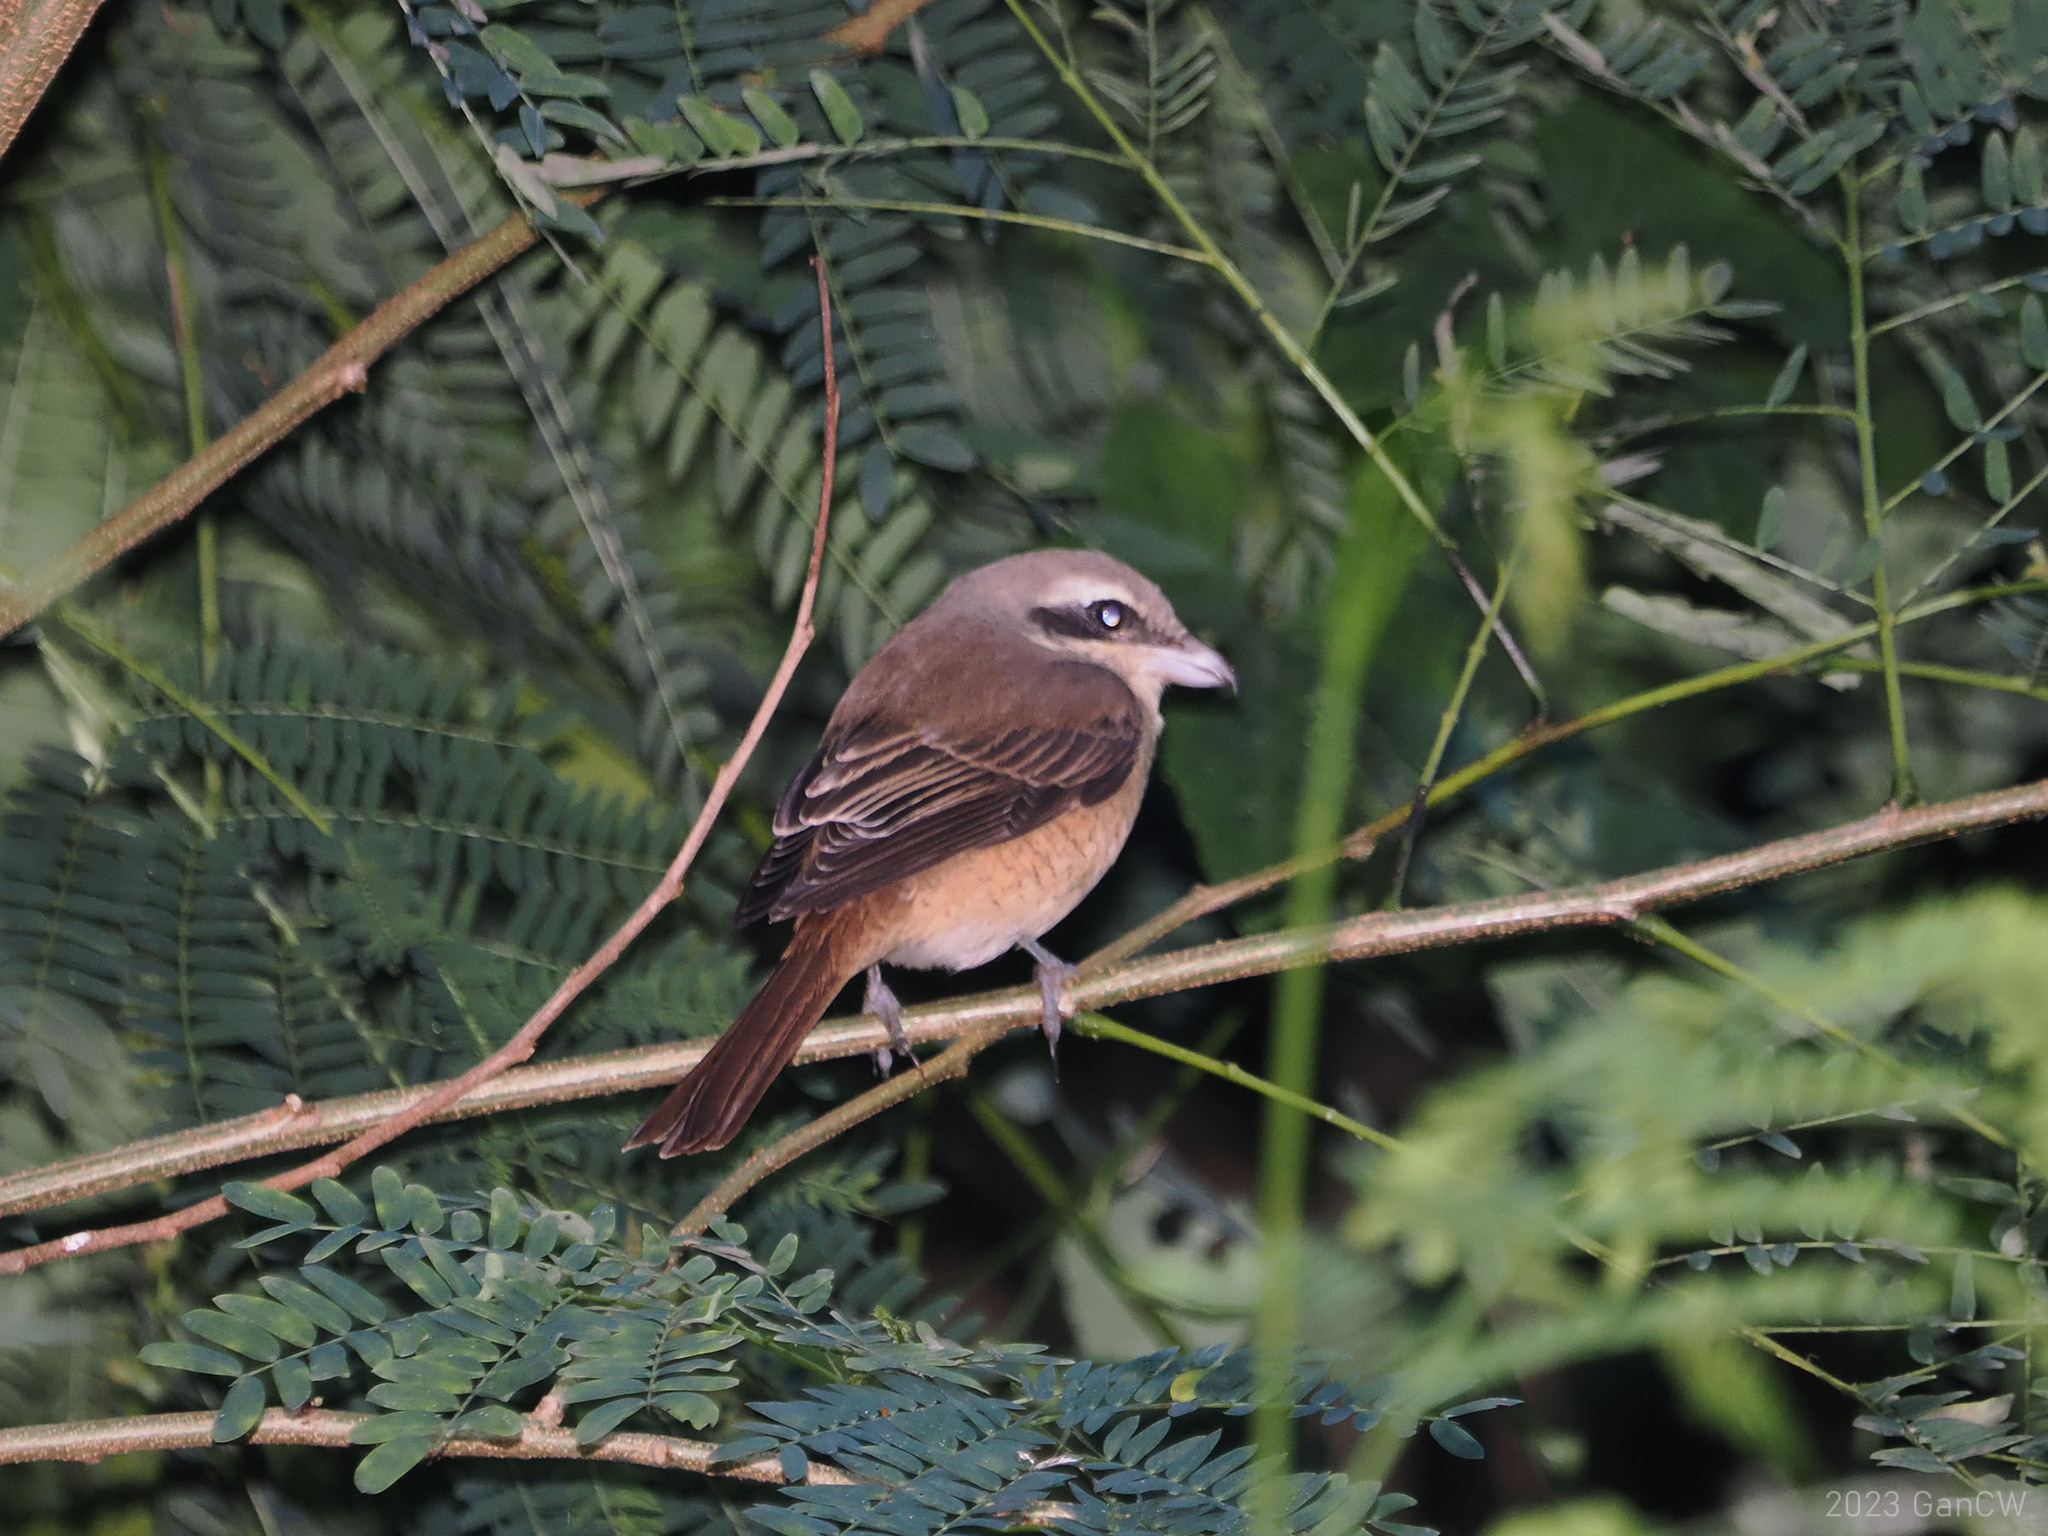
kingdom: Animalia
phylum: Chordata
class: Aves
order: Passeriformes
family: Laniidae
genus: Lanius
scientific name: Lanius cristatus
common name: Brown shrike
